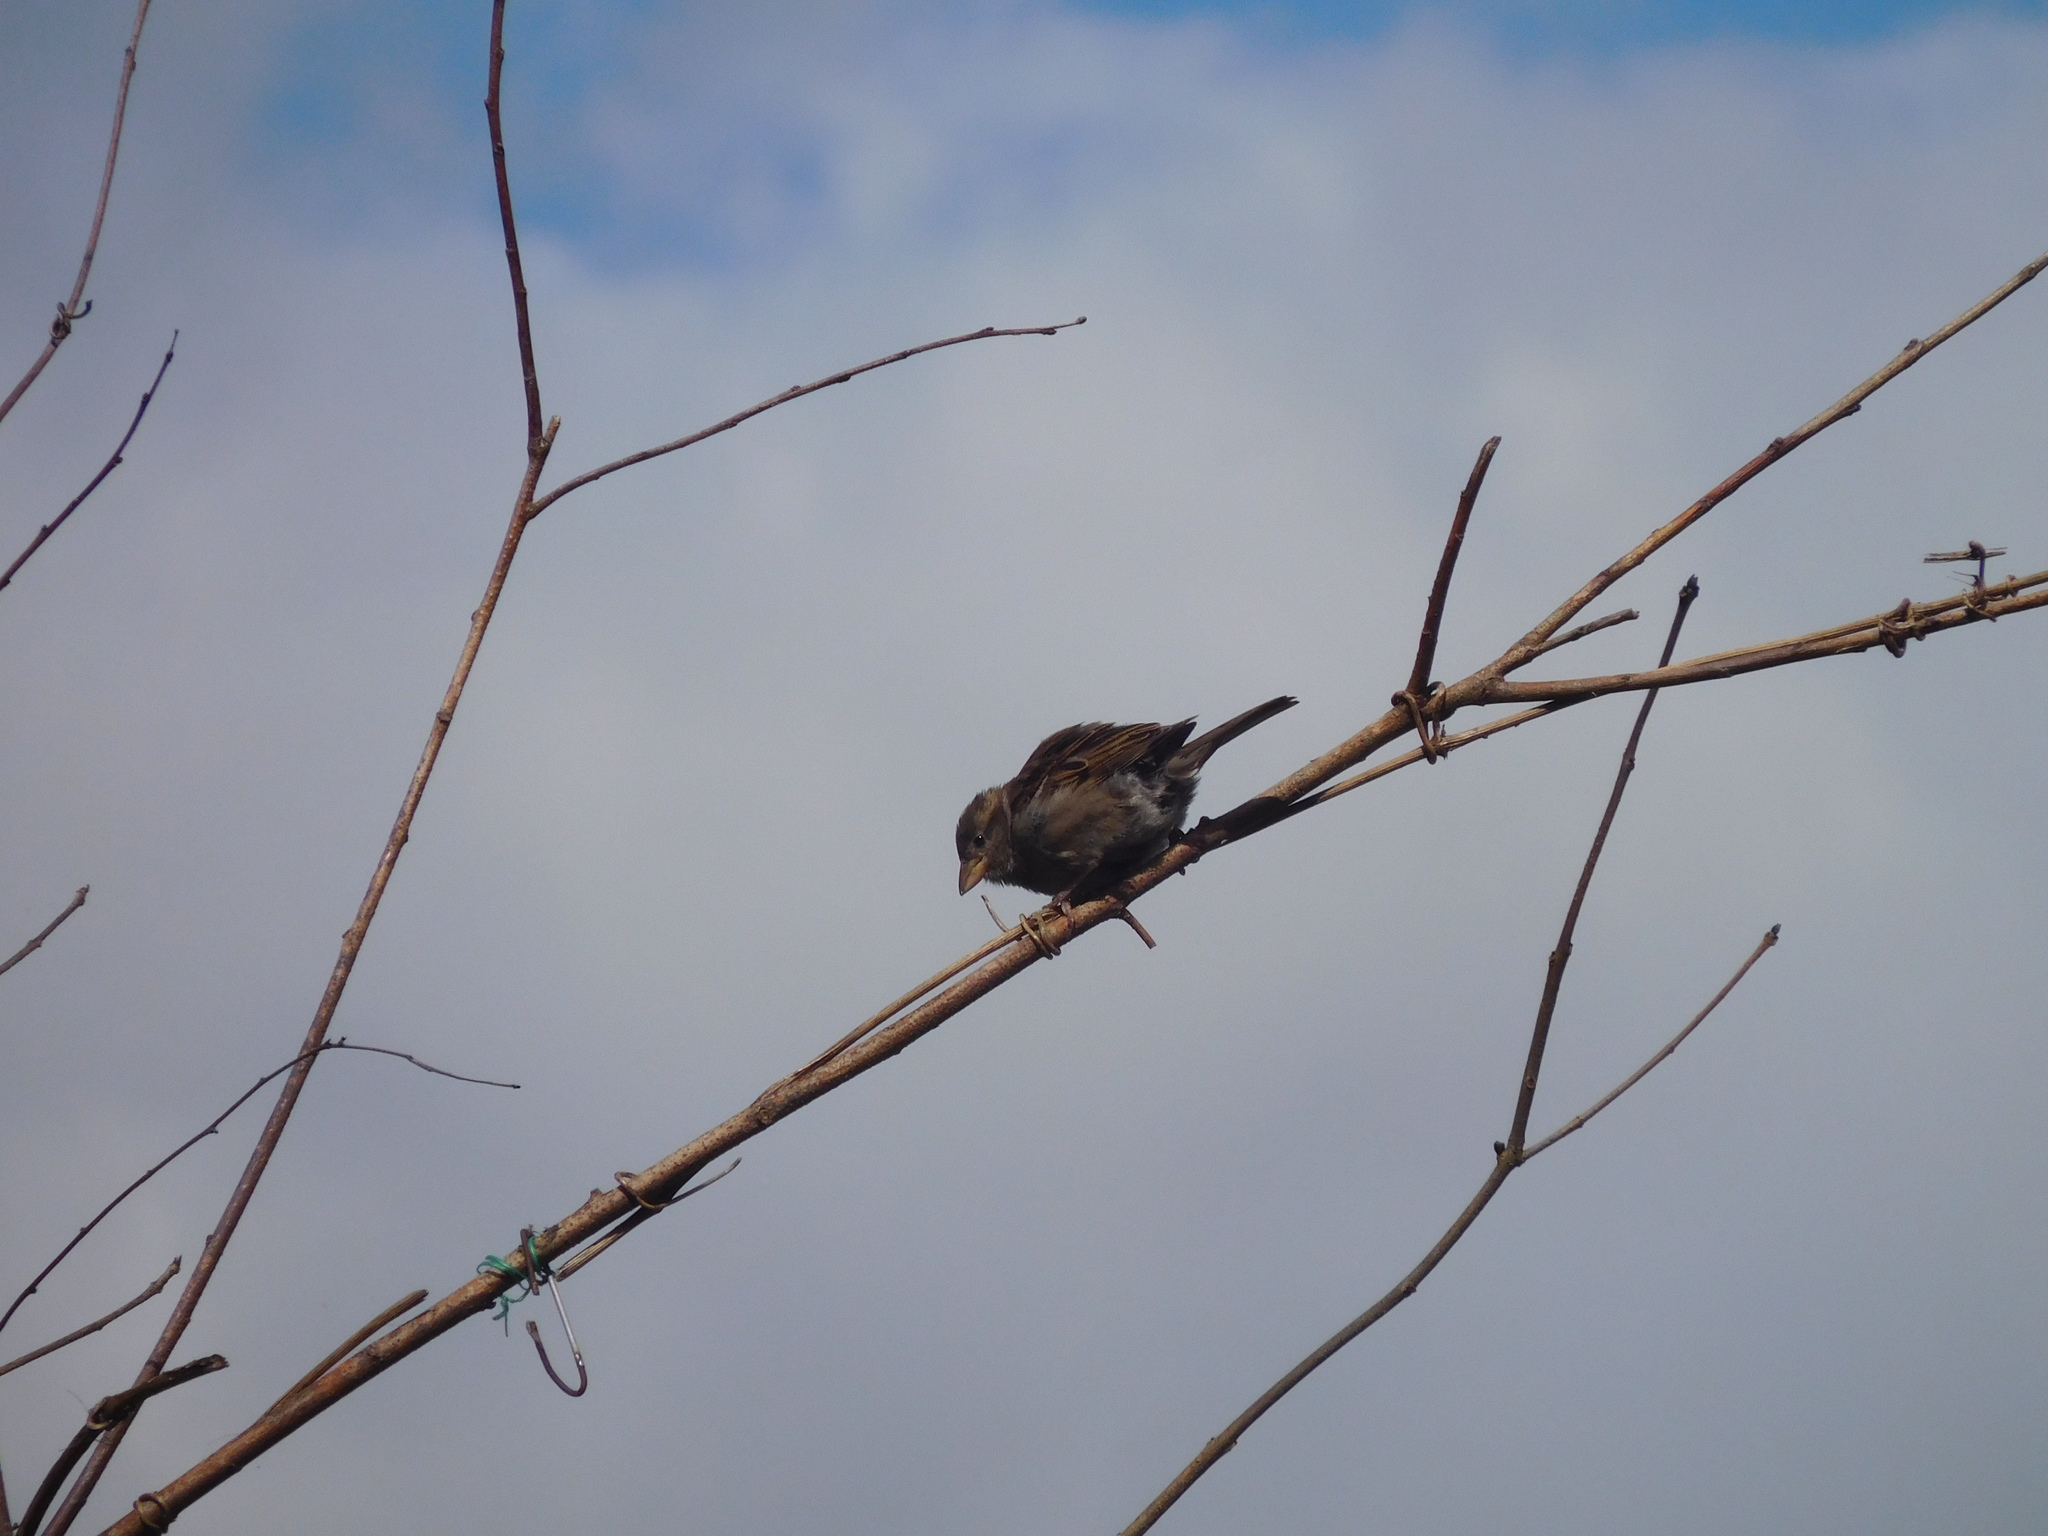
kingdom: Animalia
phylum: Chordata
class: Aves
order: Passeriformes
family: Passeridae
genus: Passer
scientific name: Passer domesticus
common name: House sparrow
